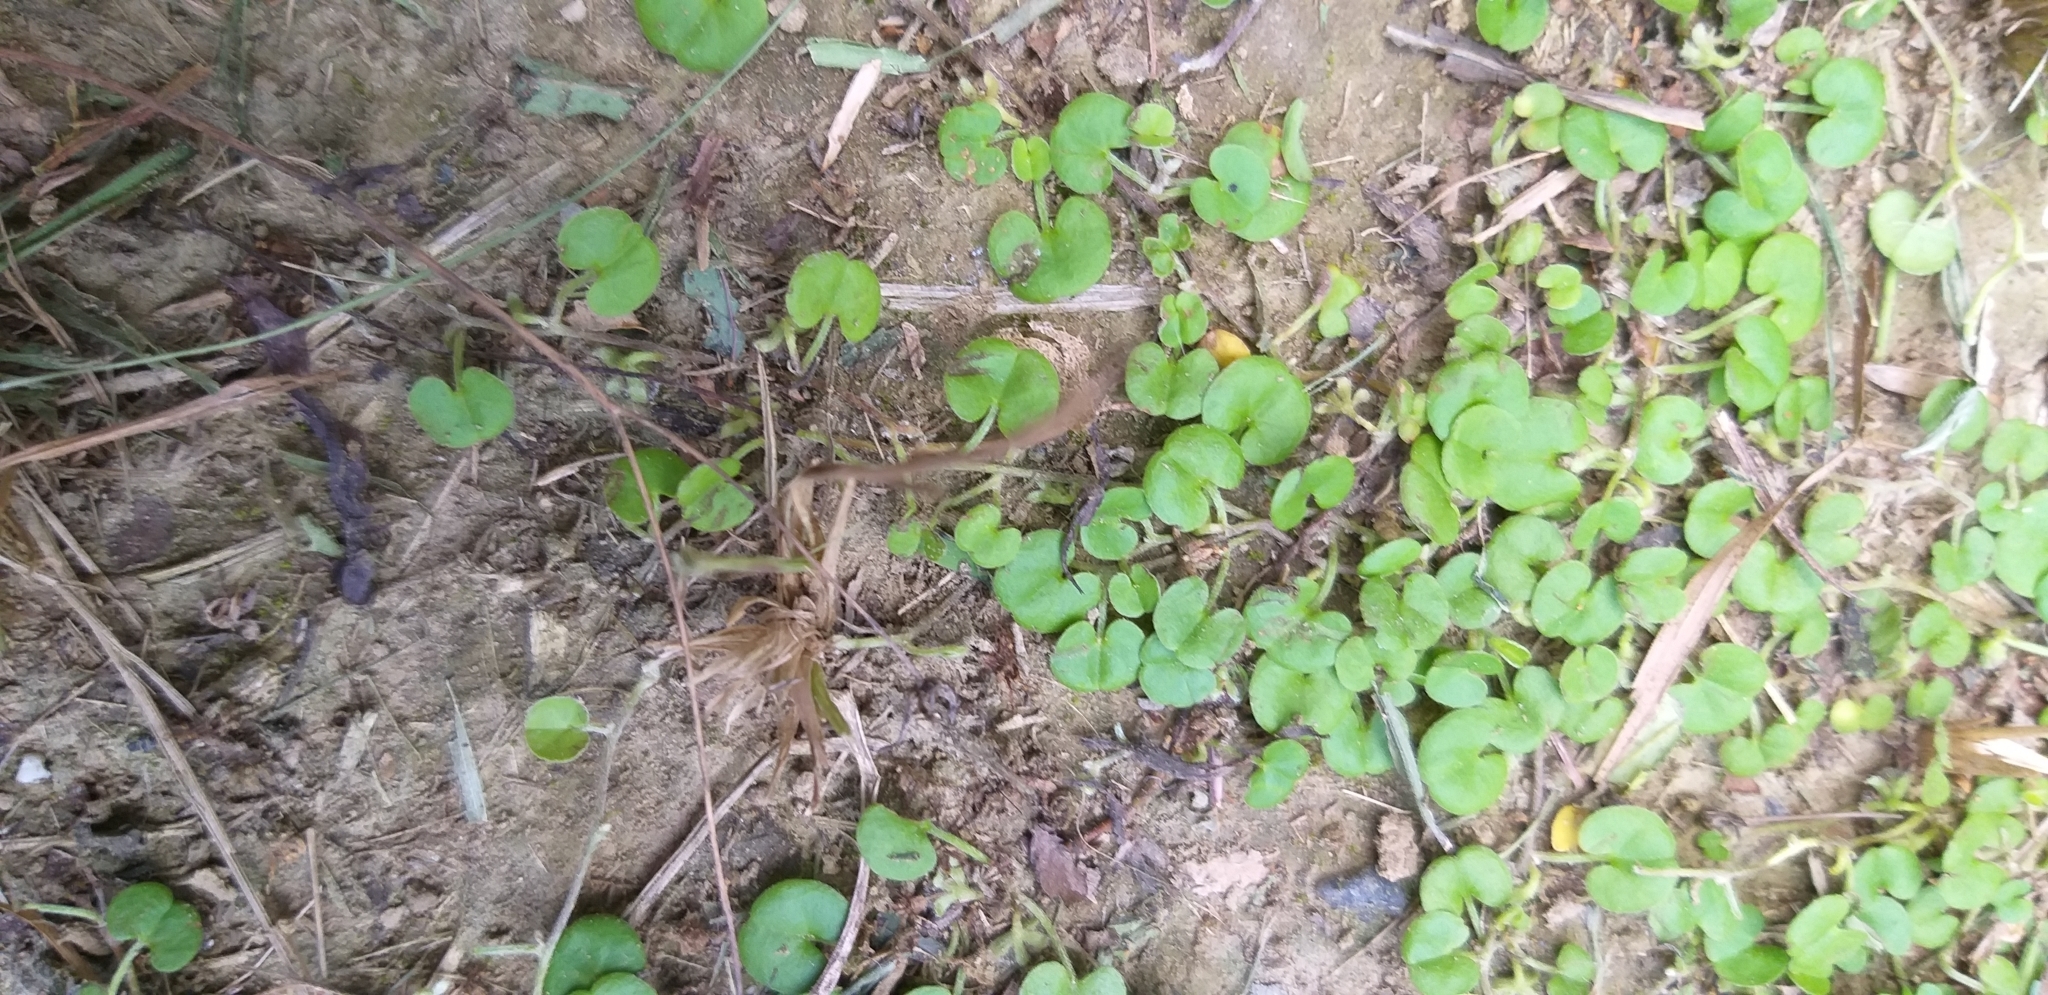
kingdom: Plantae
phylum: Tracheophyta
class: Magnoliopsida
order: Solanales
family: Convolvulaceae
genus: Dichondra
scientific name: Dichondra micrantha
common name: Kidneyweed
